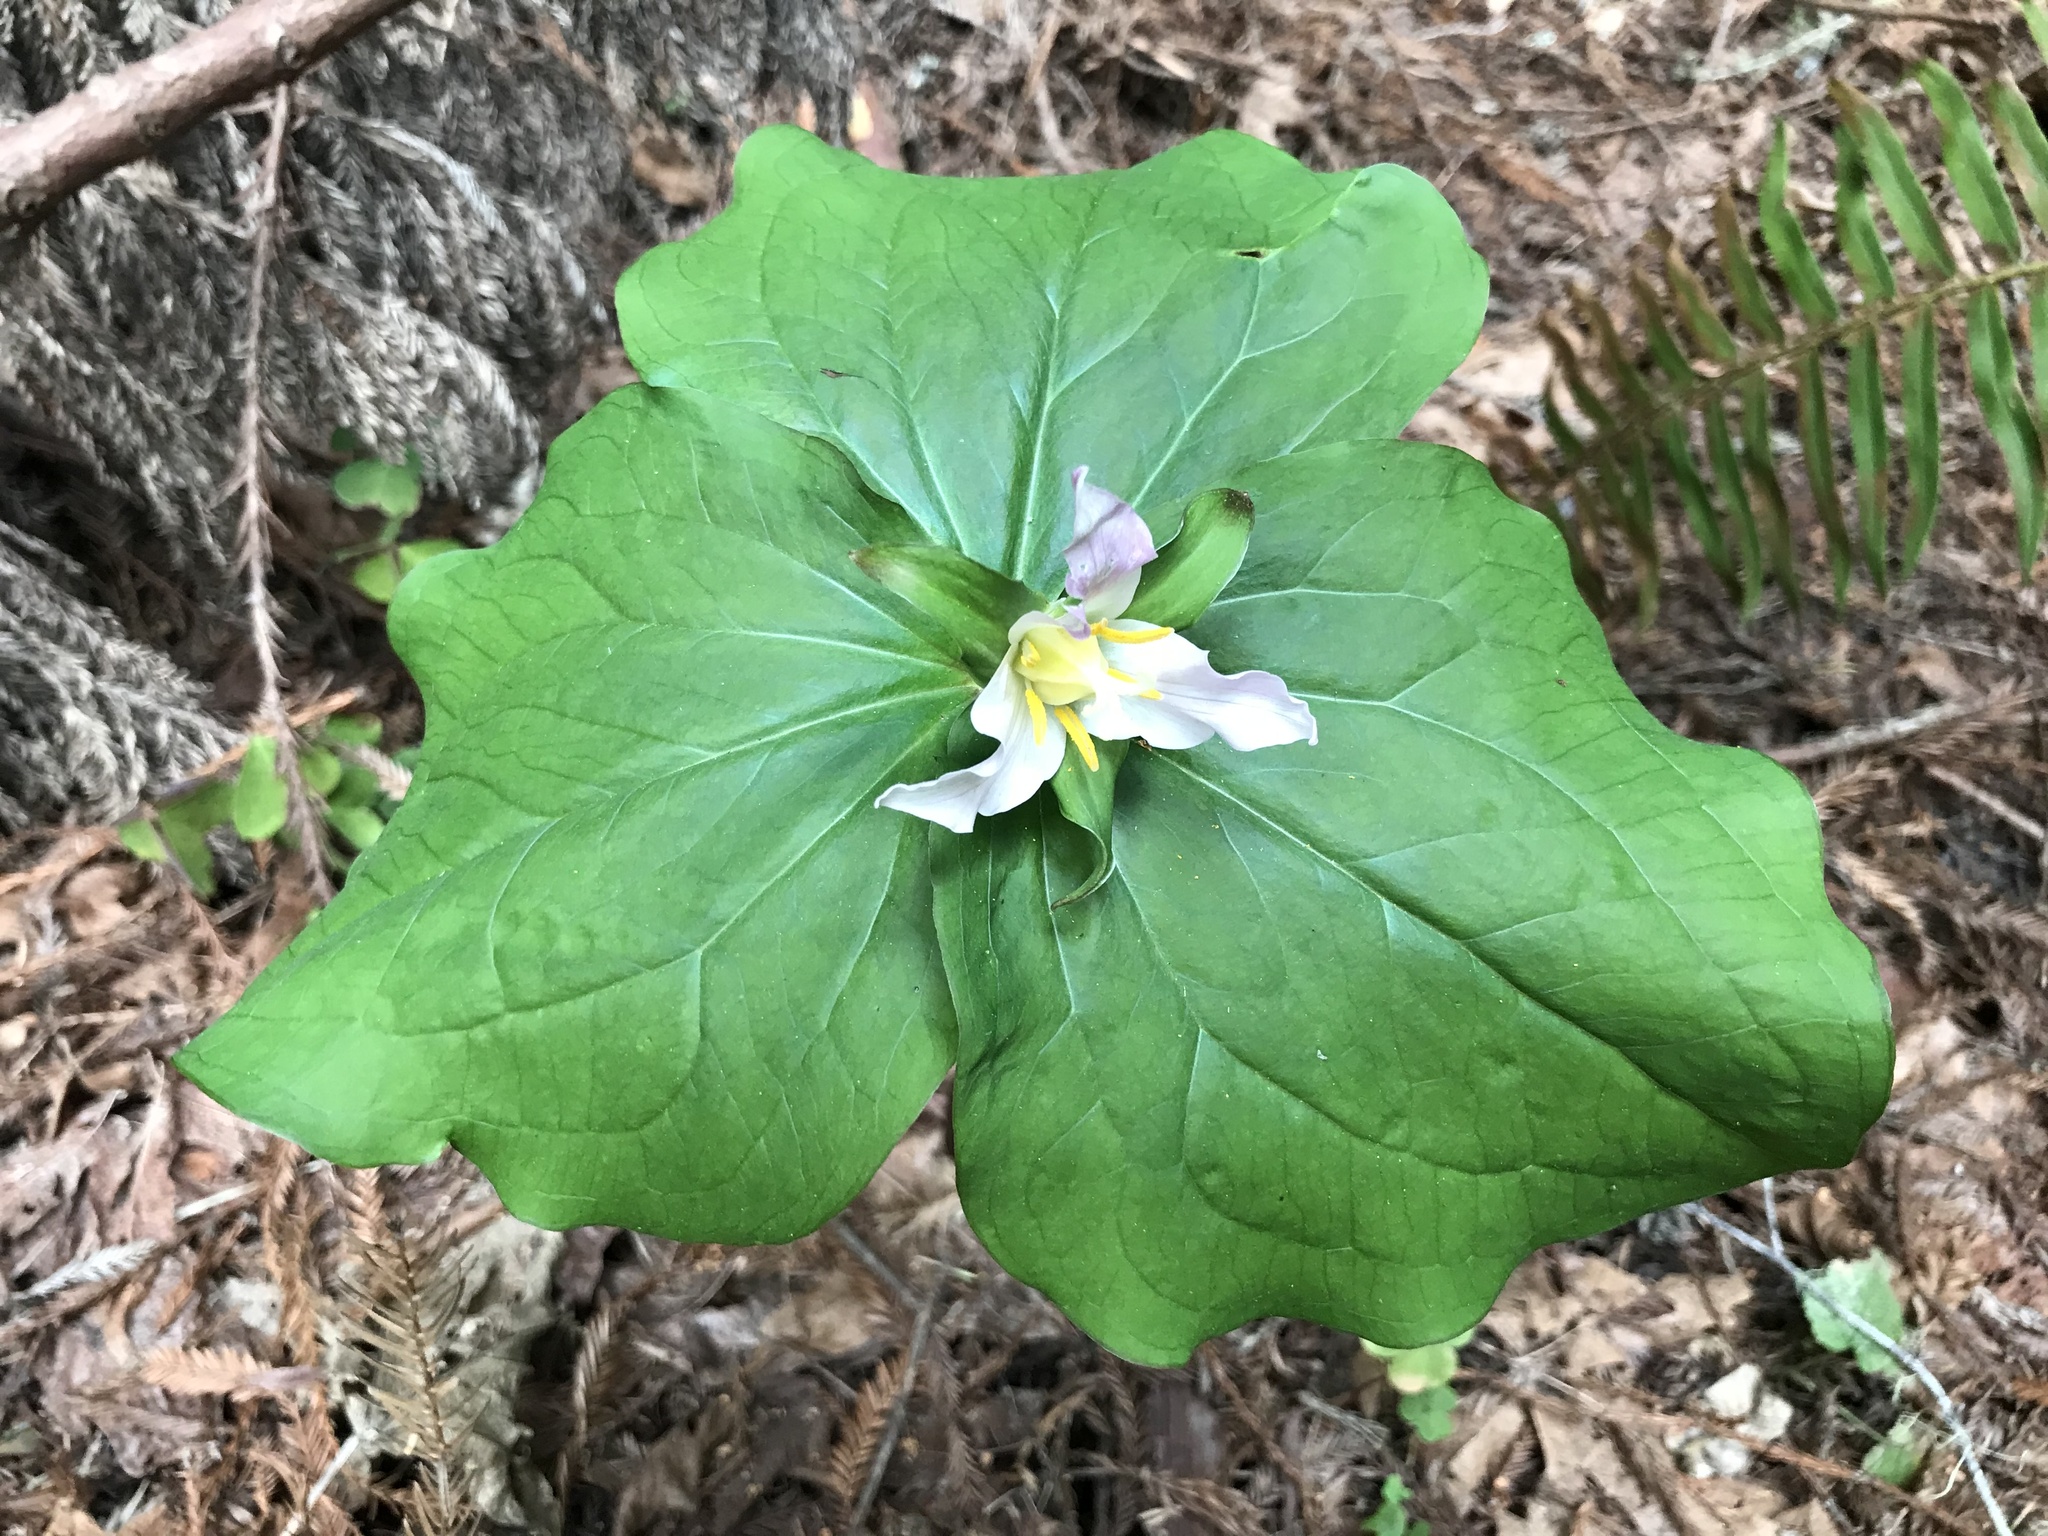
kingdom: Plantae
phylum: Tracheophyta
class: Liliopsida
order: Liliales
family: Melanthiaceae
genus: Trillium
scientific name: Trillium ovatum
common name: Pacific trillium
